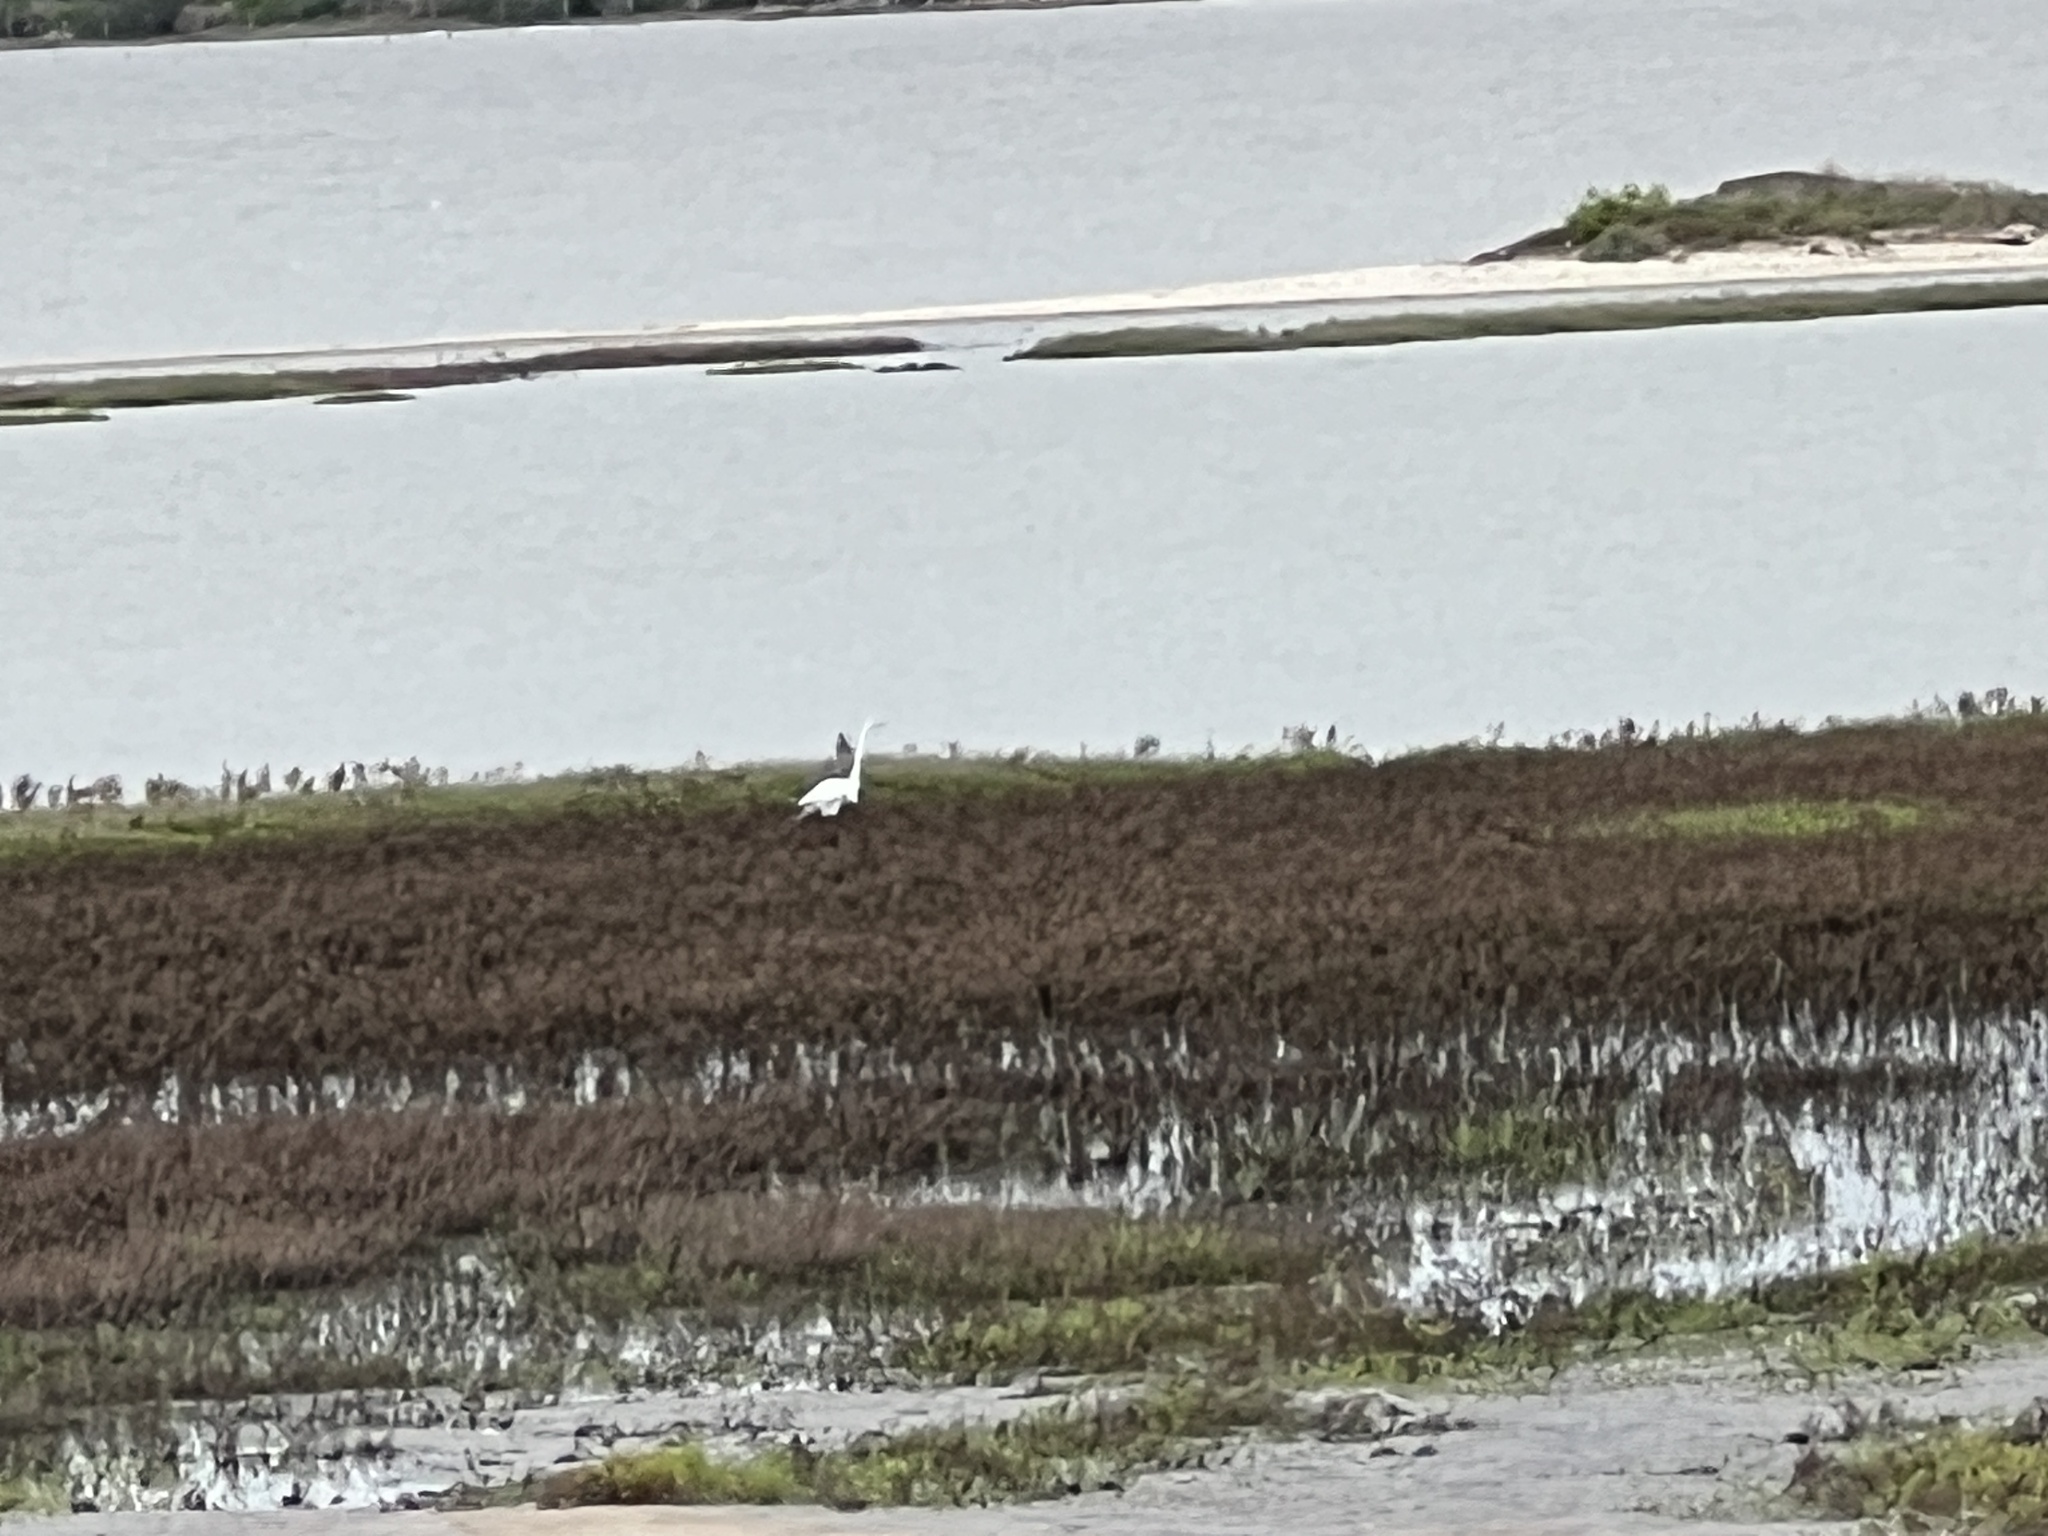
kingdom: Animalia
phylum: Chordata
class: Aves
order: Pelecaniformes
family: Ardeidae
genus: Ardea
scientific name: Ardea alba
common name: Great egret
